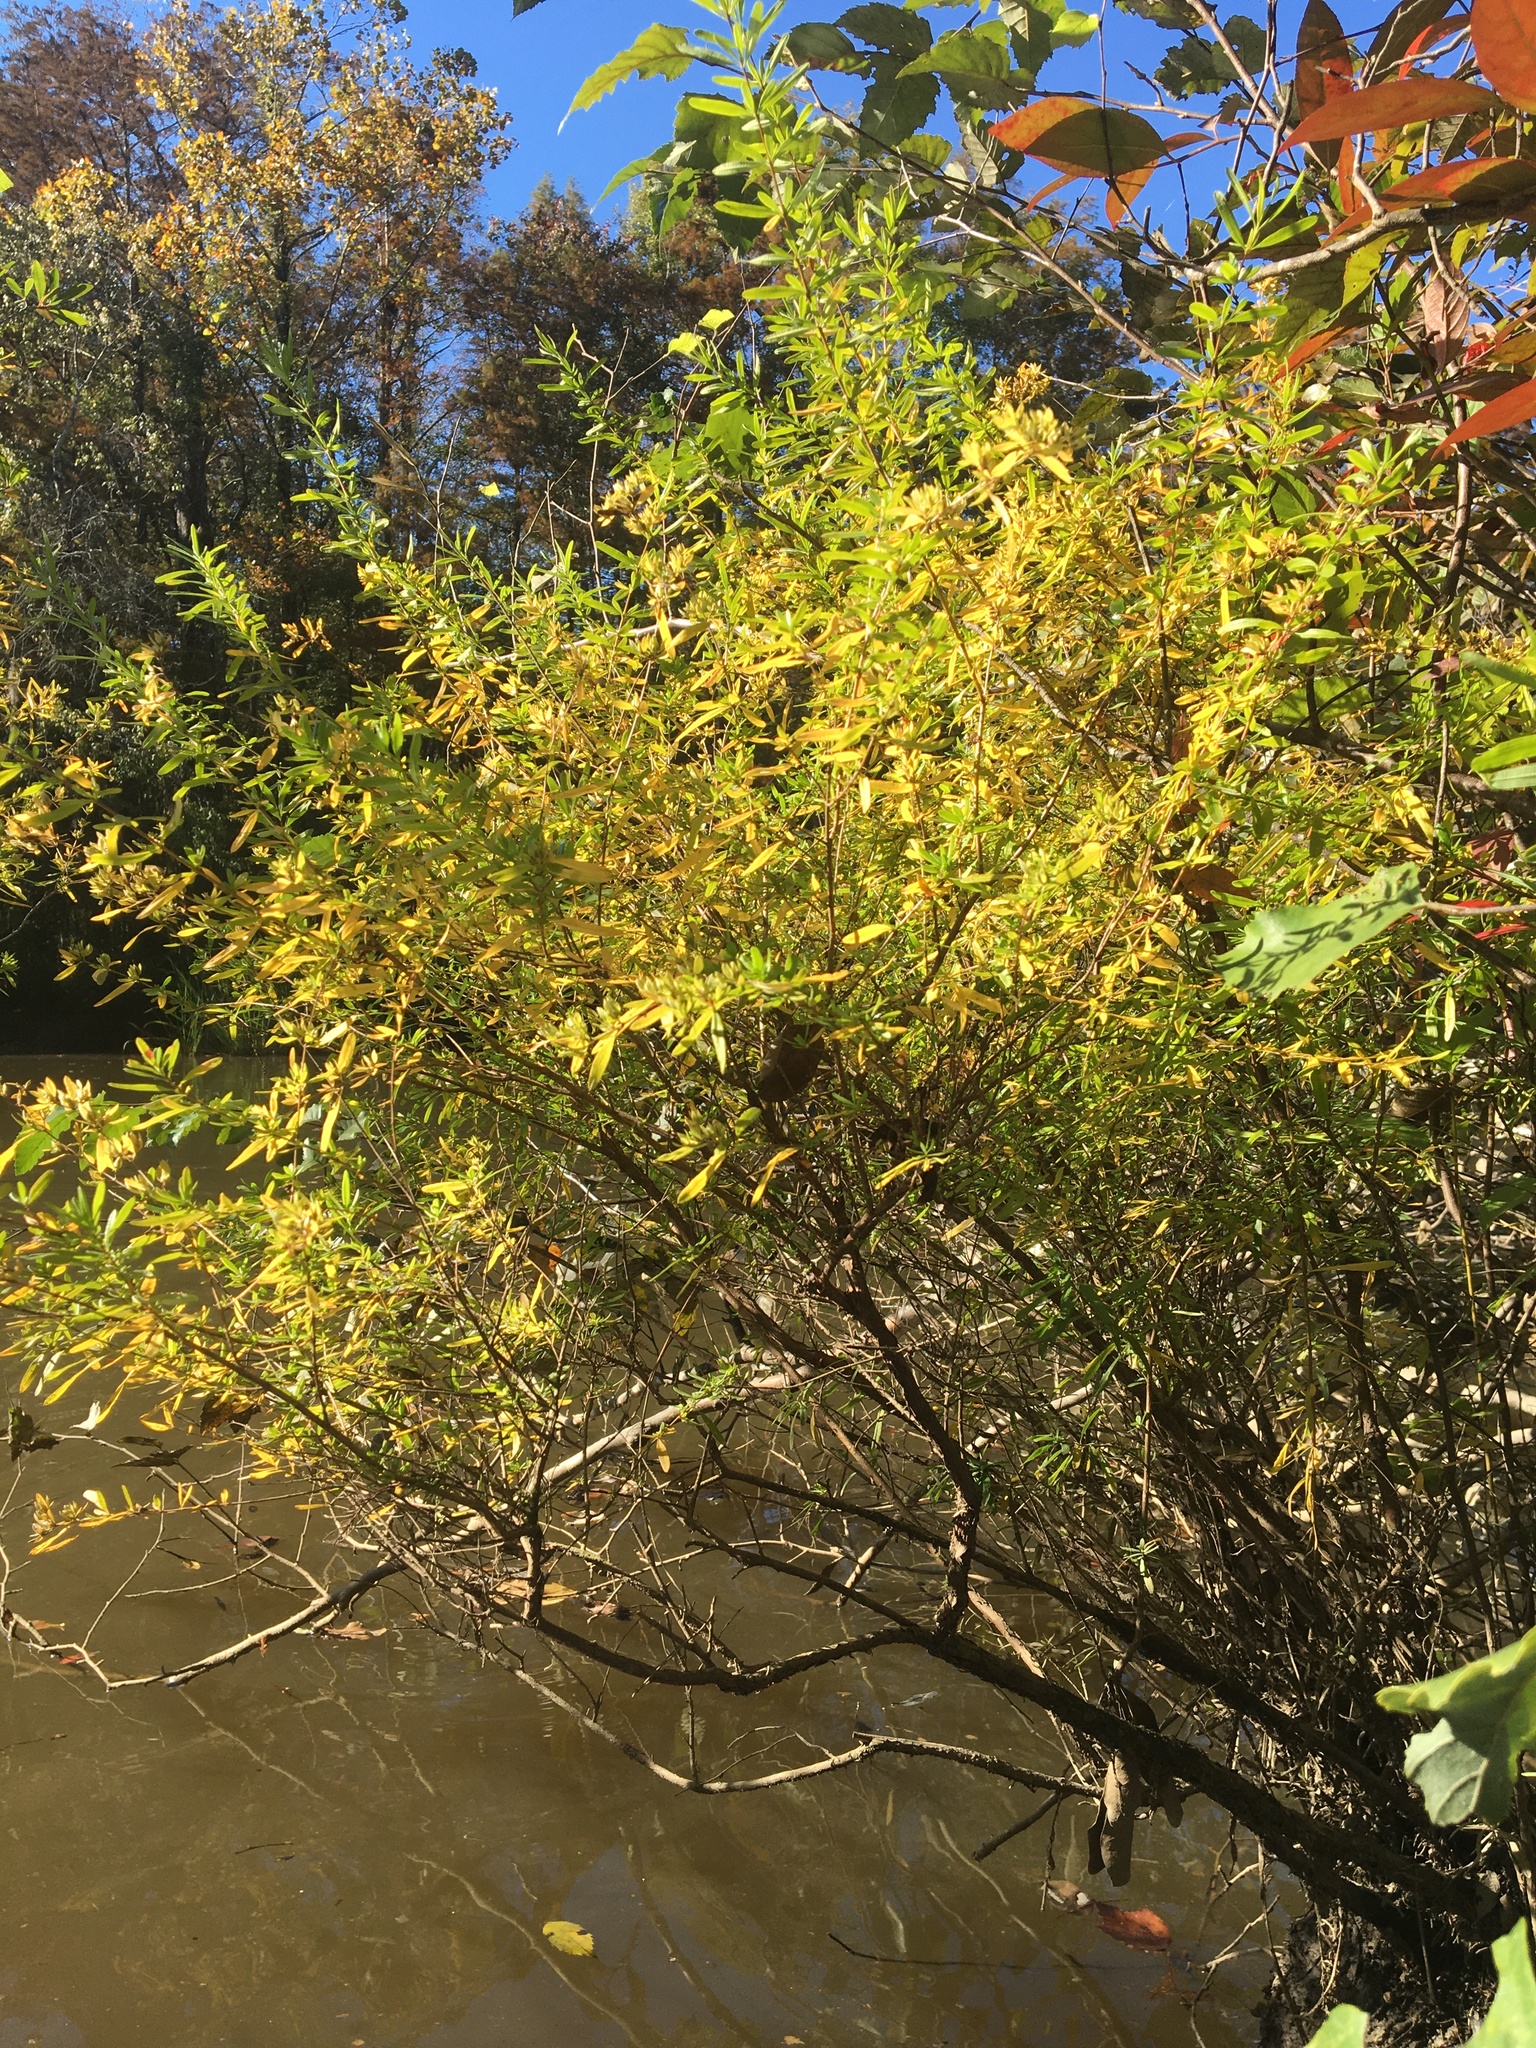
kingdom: Plantae
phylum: Tracheophyta
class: Magnoliopsida
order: Malpighiales
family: Hypericaceae
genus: Hypericum
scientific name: Hypericum galioides
